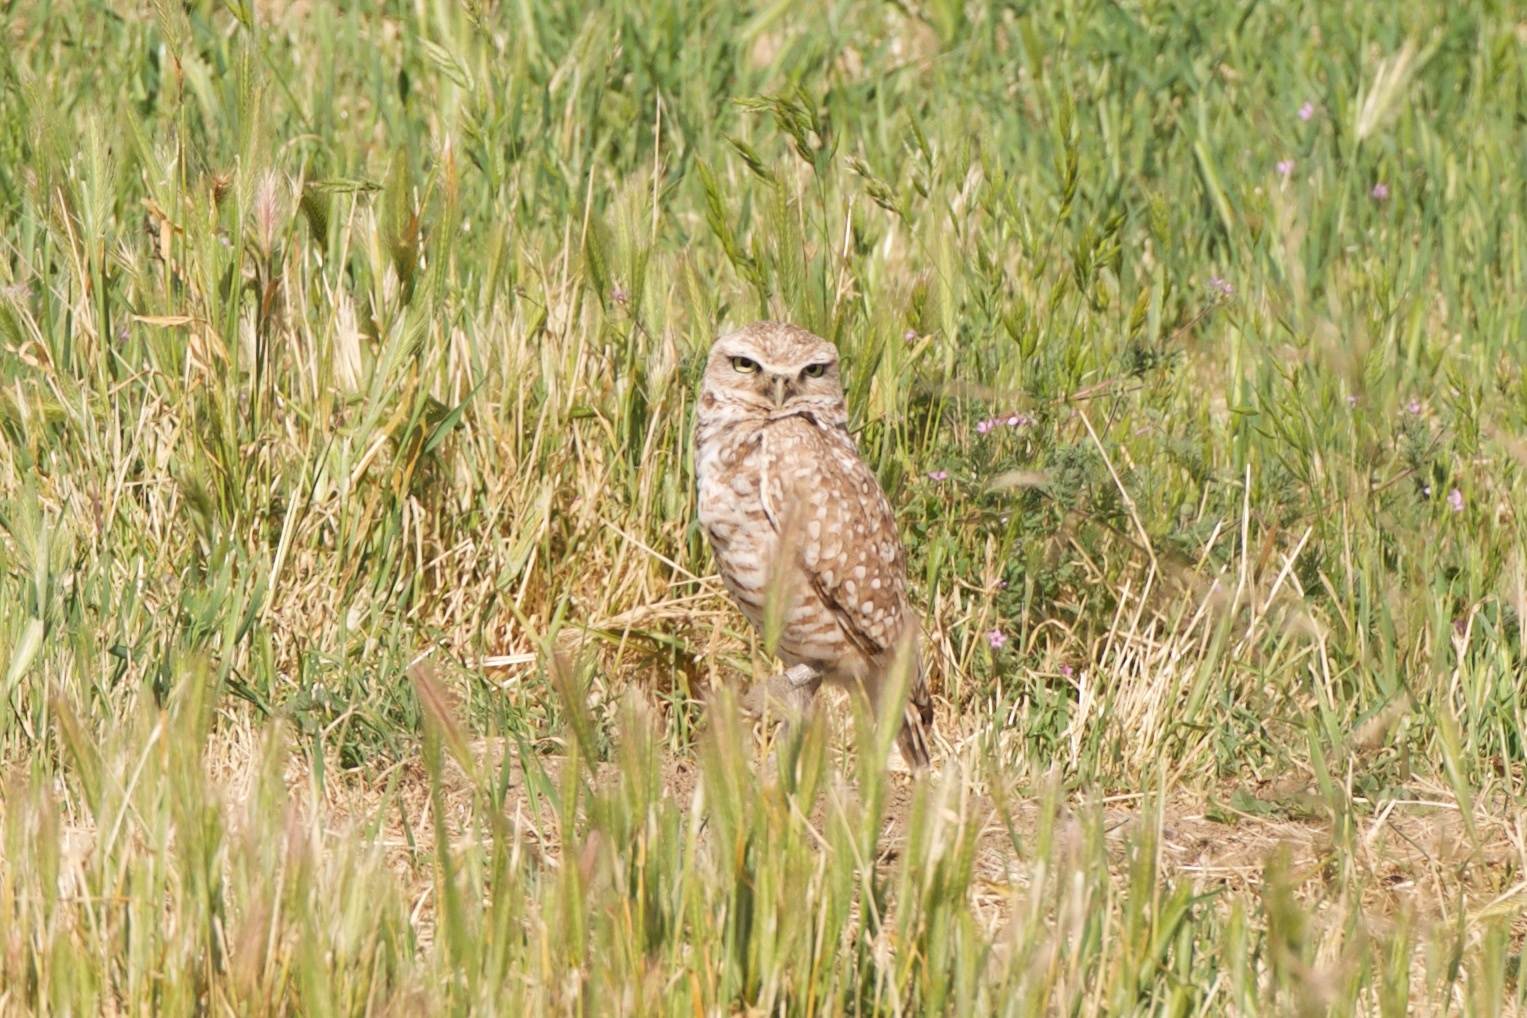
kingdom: Animalia
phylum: Chordata
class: Aves
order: Strigiformes
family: Strigidae
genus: Athene
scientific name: Athene cunicularia
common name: Burrowing owl
